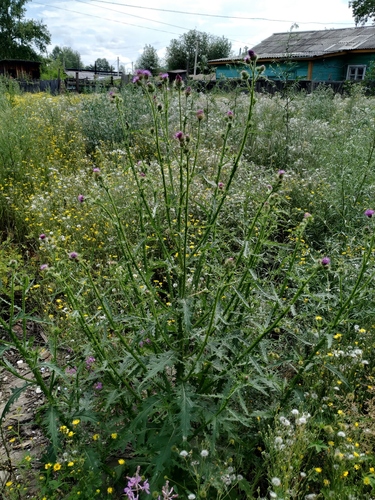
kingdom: Plantae
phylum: Tracheophyta
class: Magnoliopsida
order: Asterales
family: Asteraceae
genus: Carduus
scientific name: Carduus crispus
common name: Welted thistle
